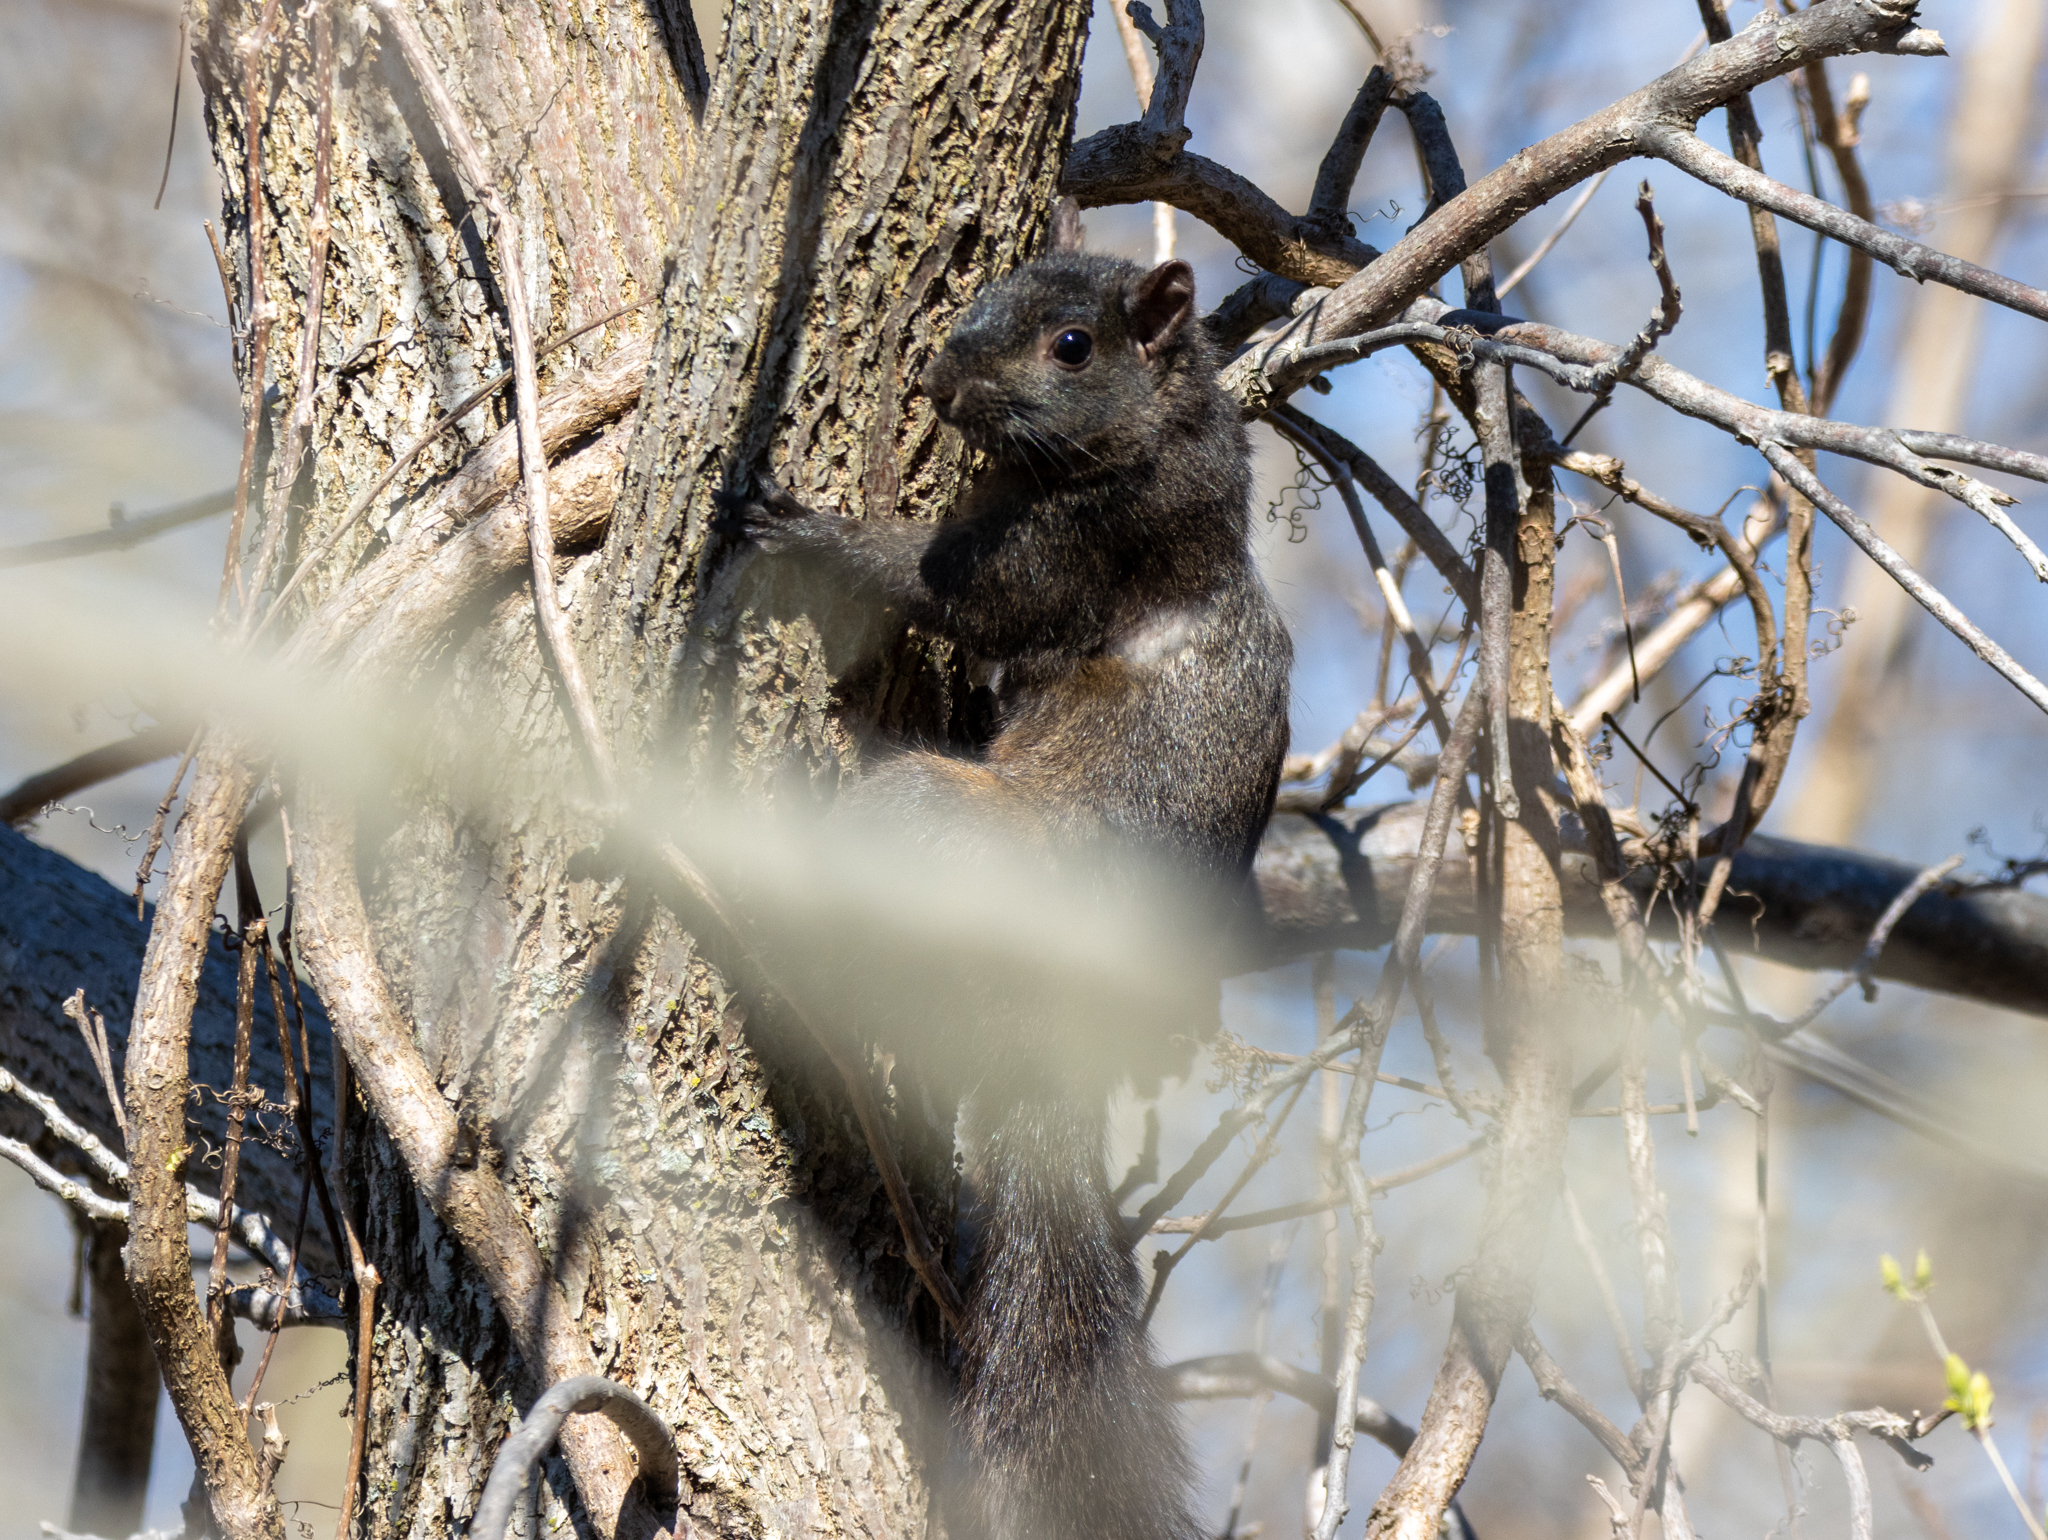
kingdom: Animalia
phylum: Chordata
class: Mammalia
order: Rodentia
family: Sciuridae
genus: Sciurus
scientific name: Sciurus carolinensis
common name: Eastern gray squirrel
